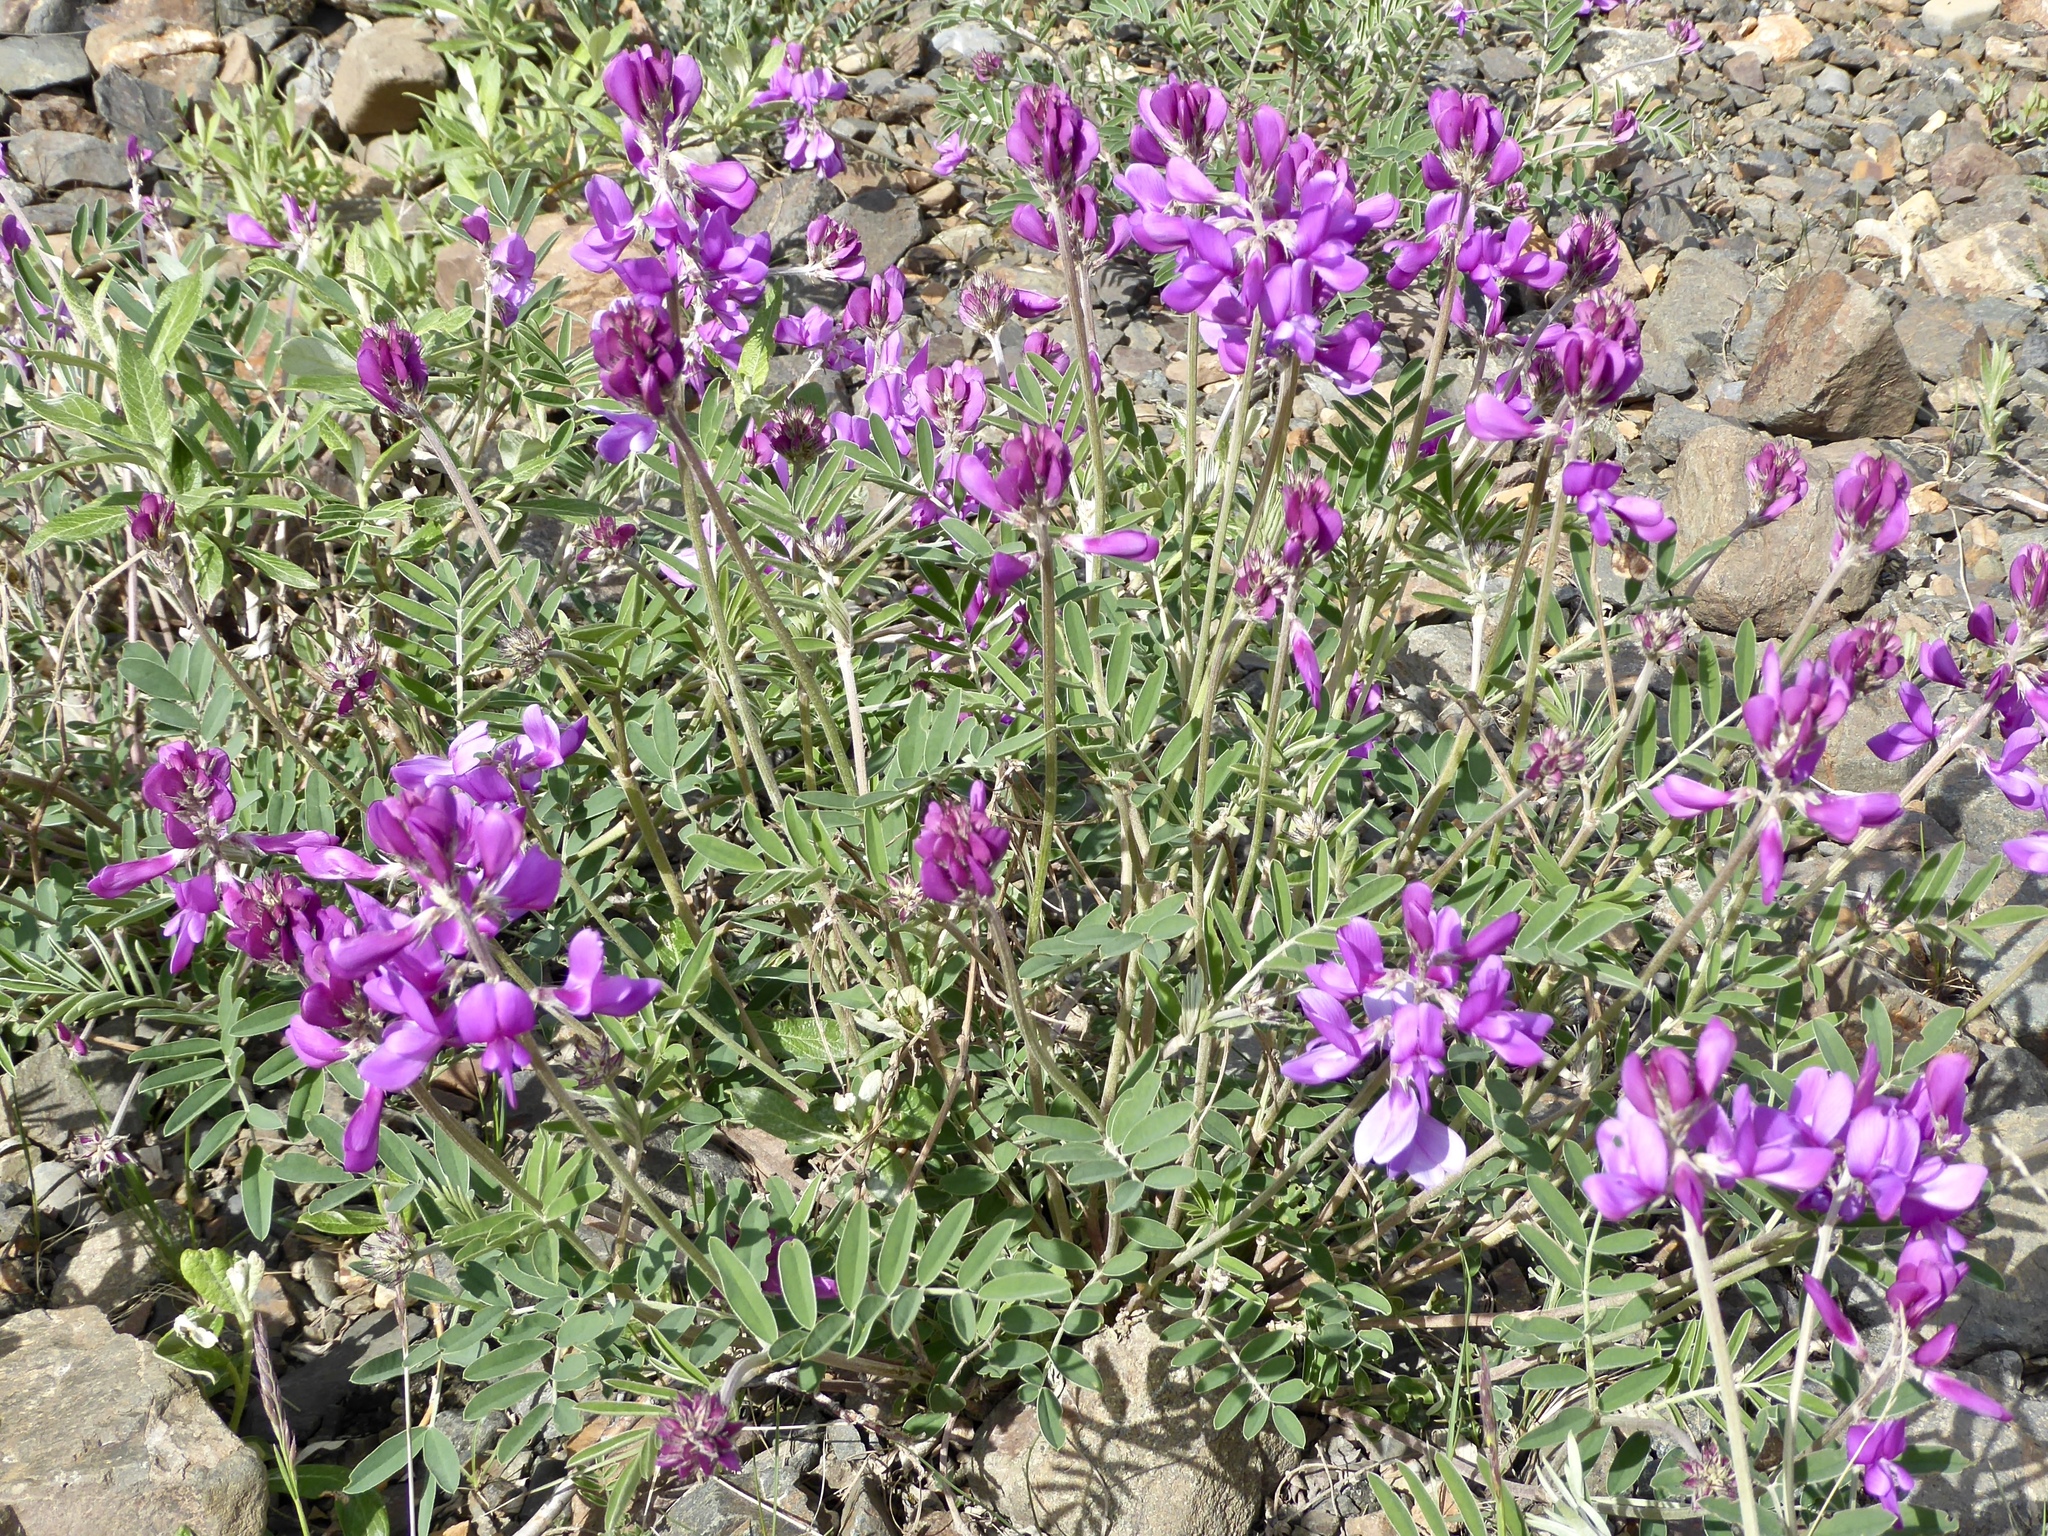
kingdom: Plantae
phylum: Tracheophyta
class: Magnoliopsida
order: Fabales
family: Fabaceae
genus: Hedysarum
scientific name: Hedysarum boreale
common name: Northern sweet-vetch
